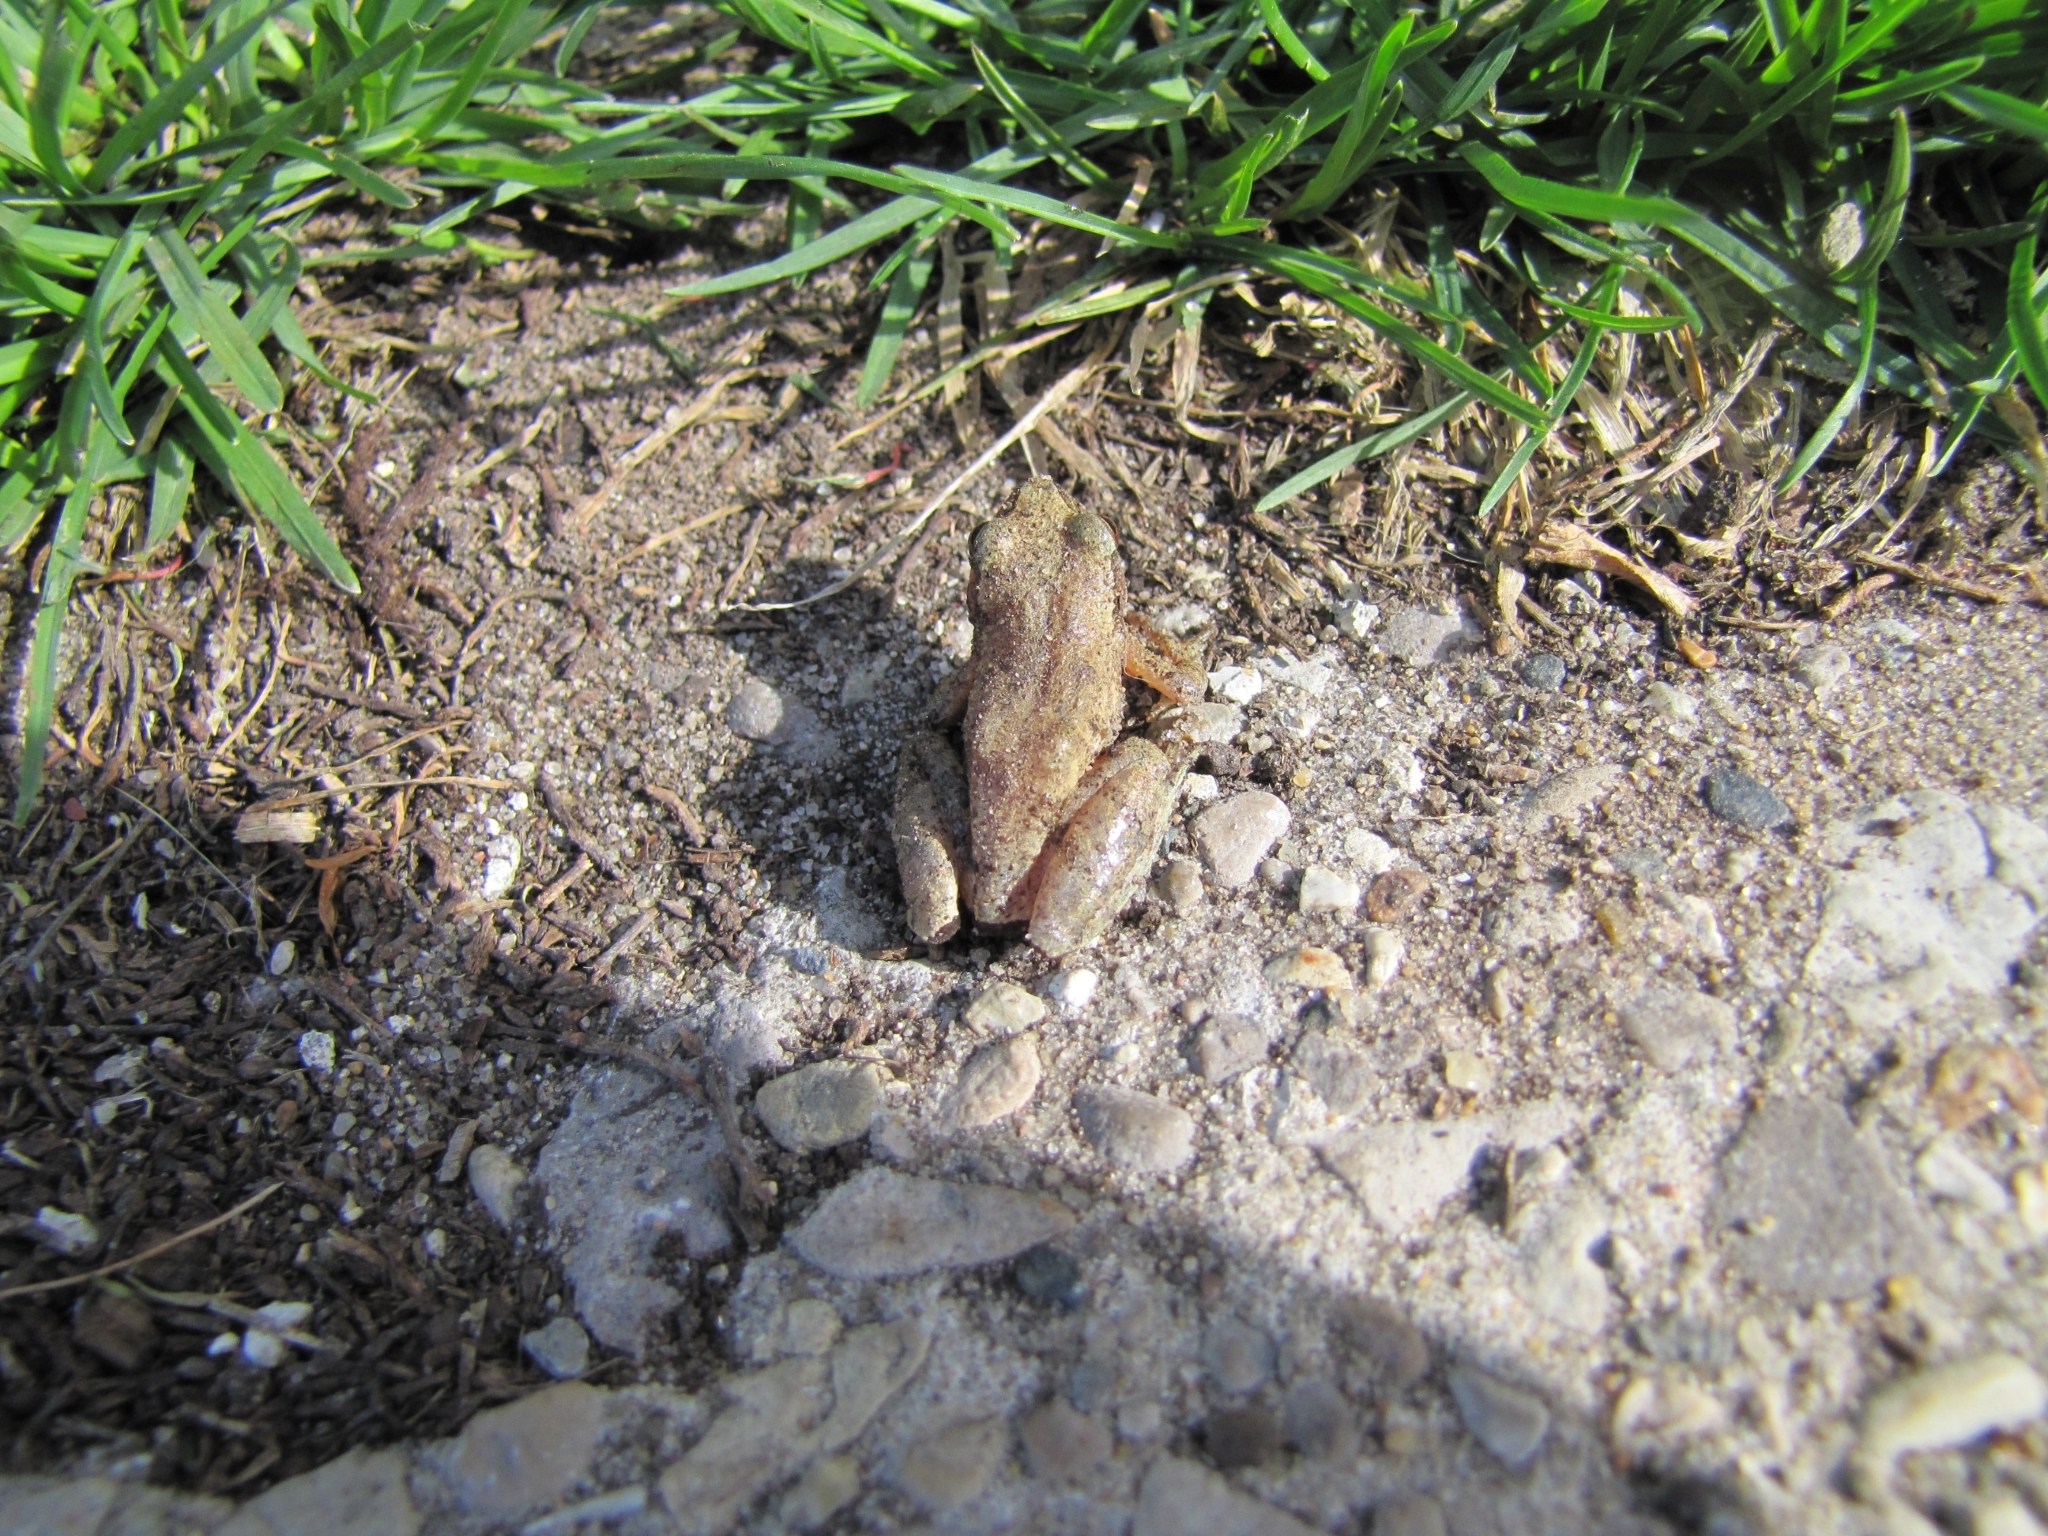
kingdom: Animalia
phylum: Chordata
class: Amphibia
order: Anura
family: Hylidae
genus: Pseudacris
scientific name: Pseudacris crucifer
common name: Spring peeper
